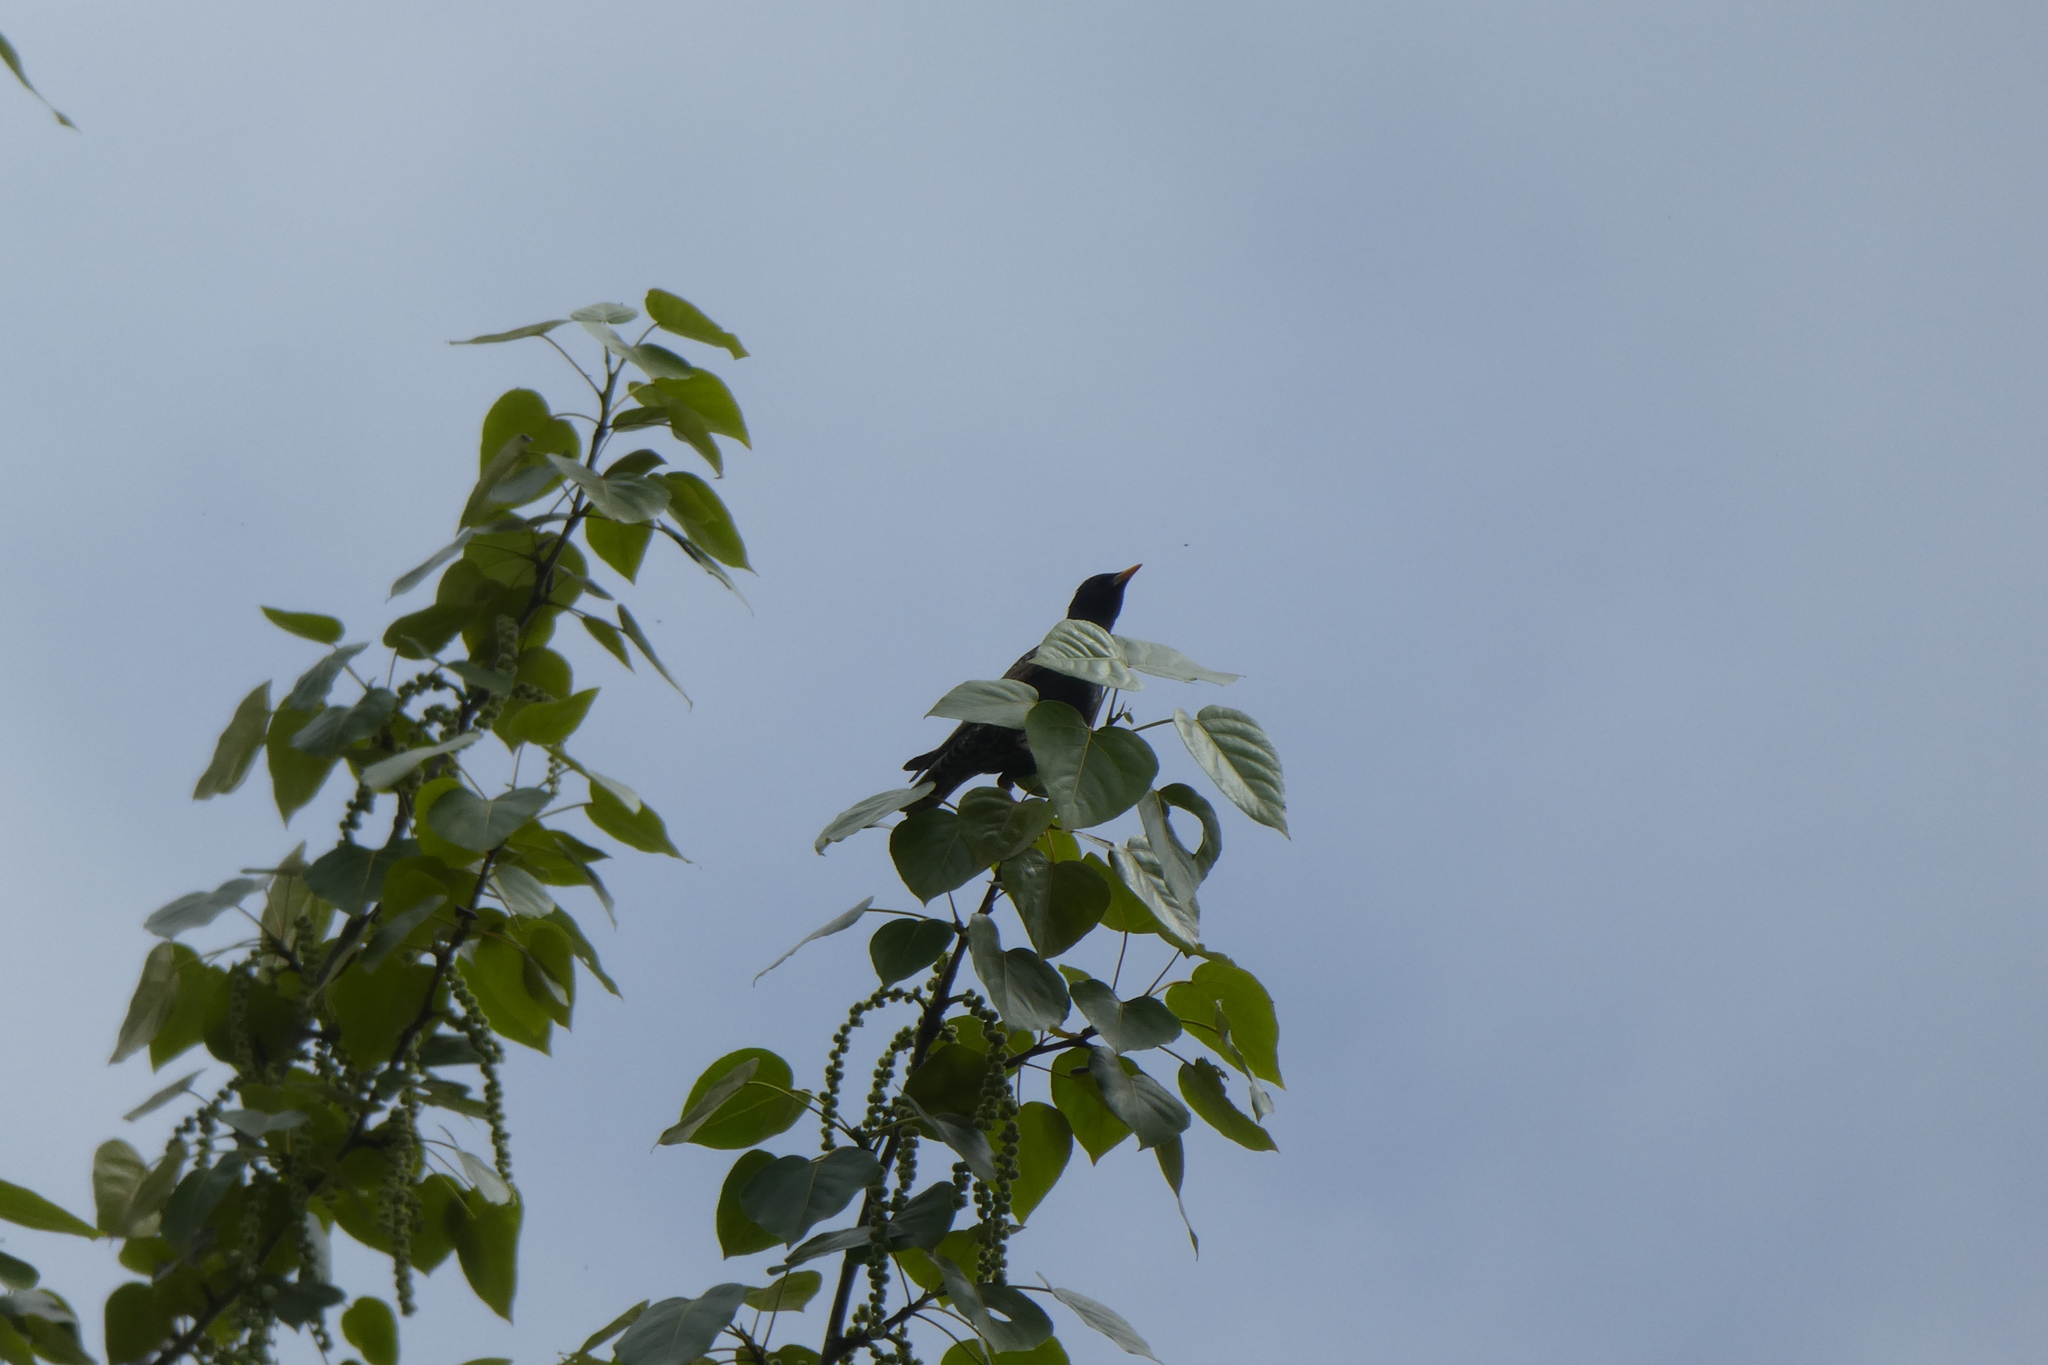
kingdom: Animalia
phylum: Chordata
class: Aves
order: Passeriformes
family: Sturnidae
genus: Sturnus
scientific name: Sturnus vulgaris
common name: Common starling
